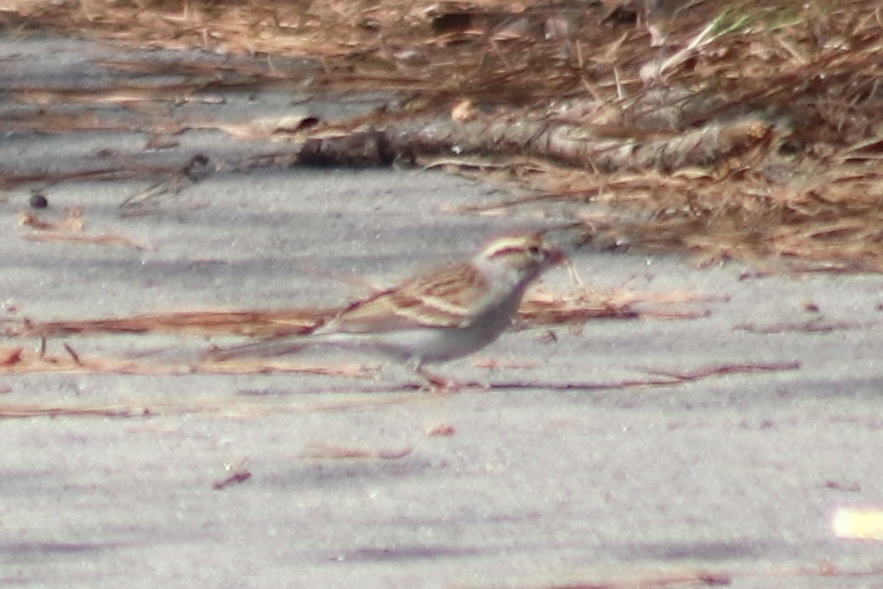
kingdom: Animalia
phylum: Chordata
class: Aves
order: Passeriformes
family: Passerellidae
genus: Spizella
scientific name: Spizella passerina
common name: Chipping sparrow
